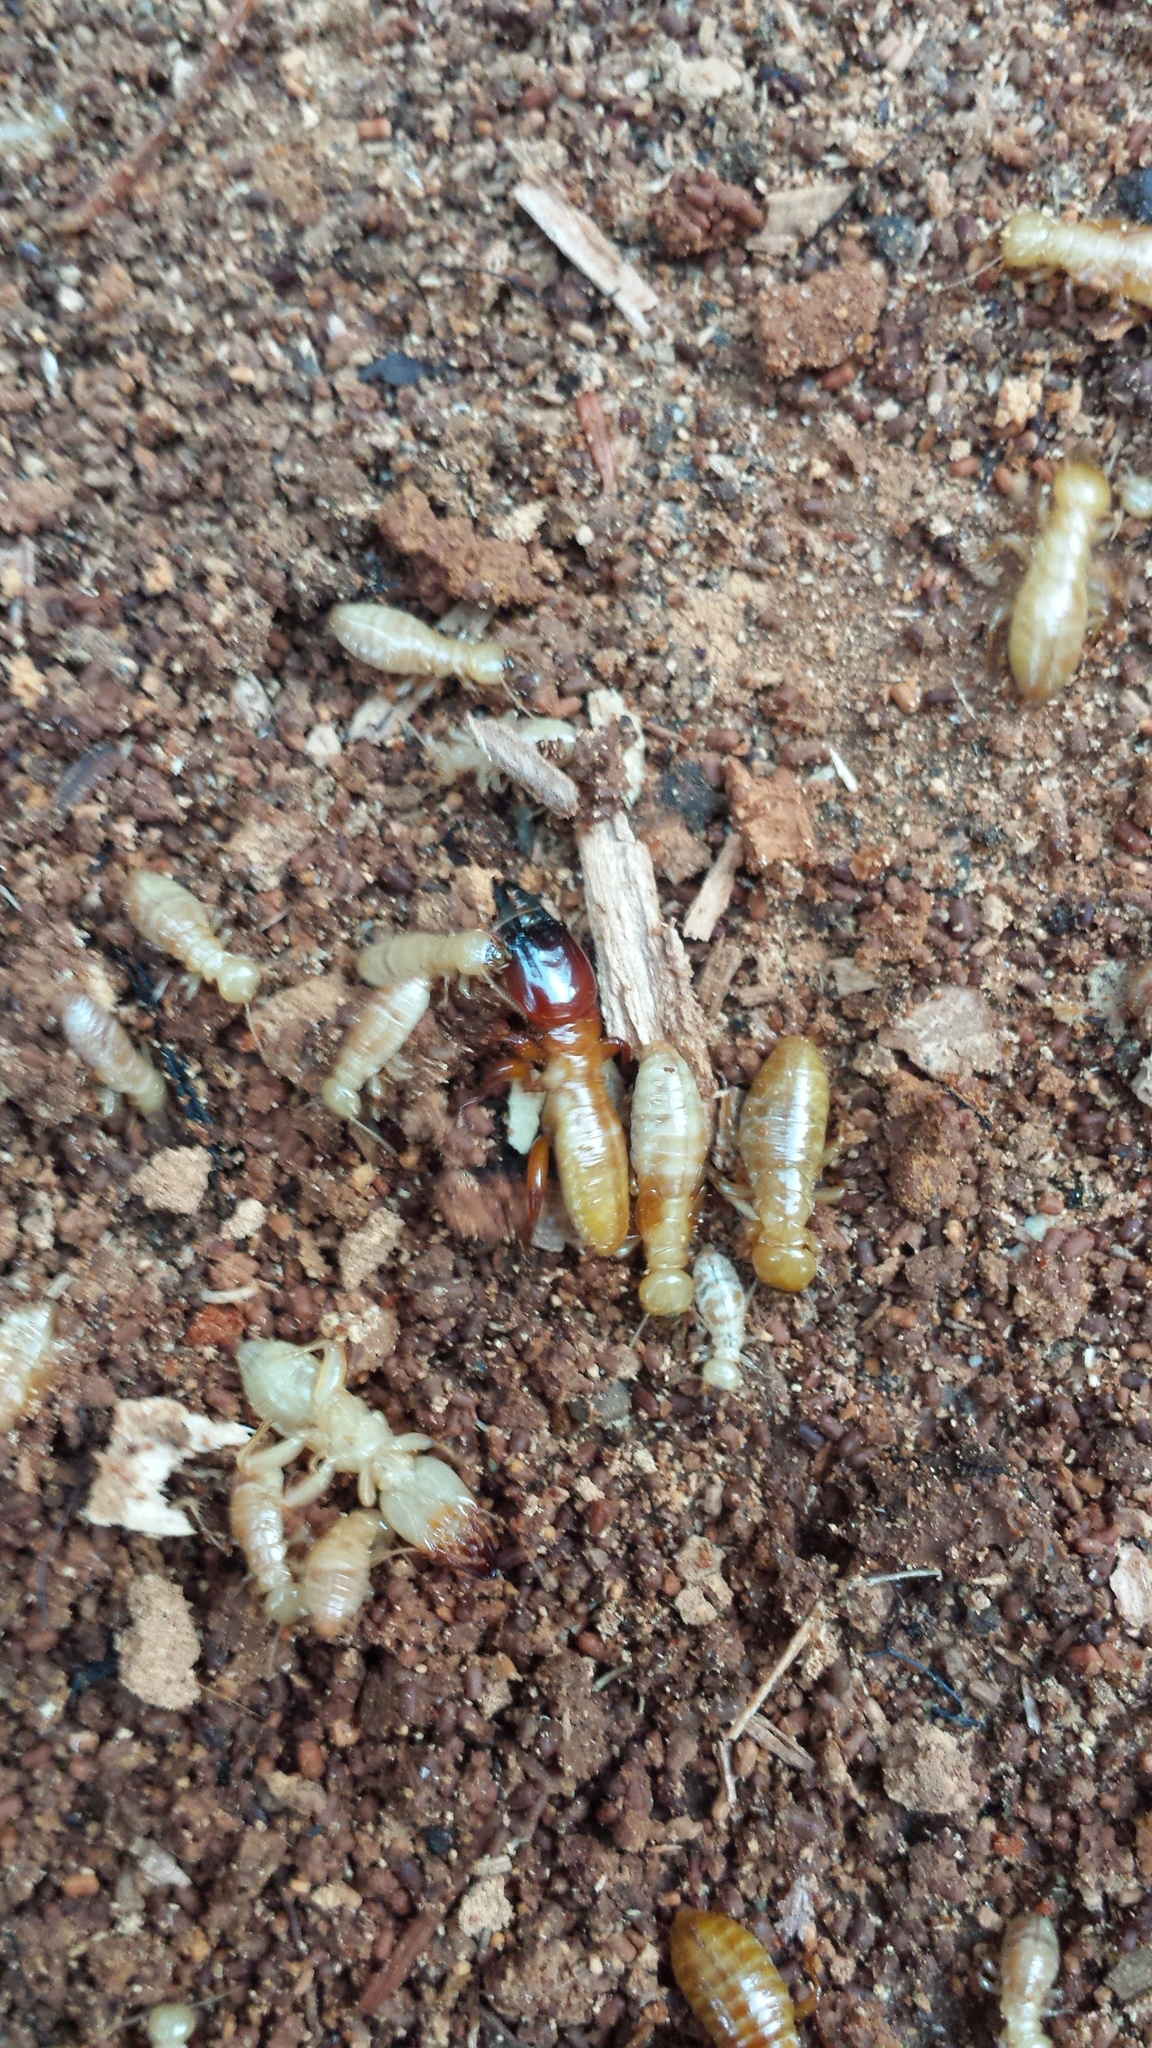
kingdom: Animalia
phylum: Arthropoda
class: Insecta
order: Blattodea
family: Archotermopsidae
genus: Zootermopsis
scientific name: Zootermopsis
